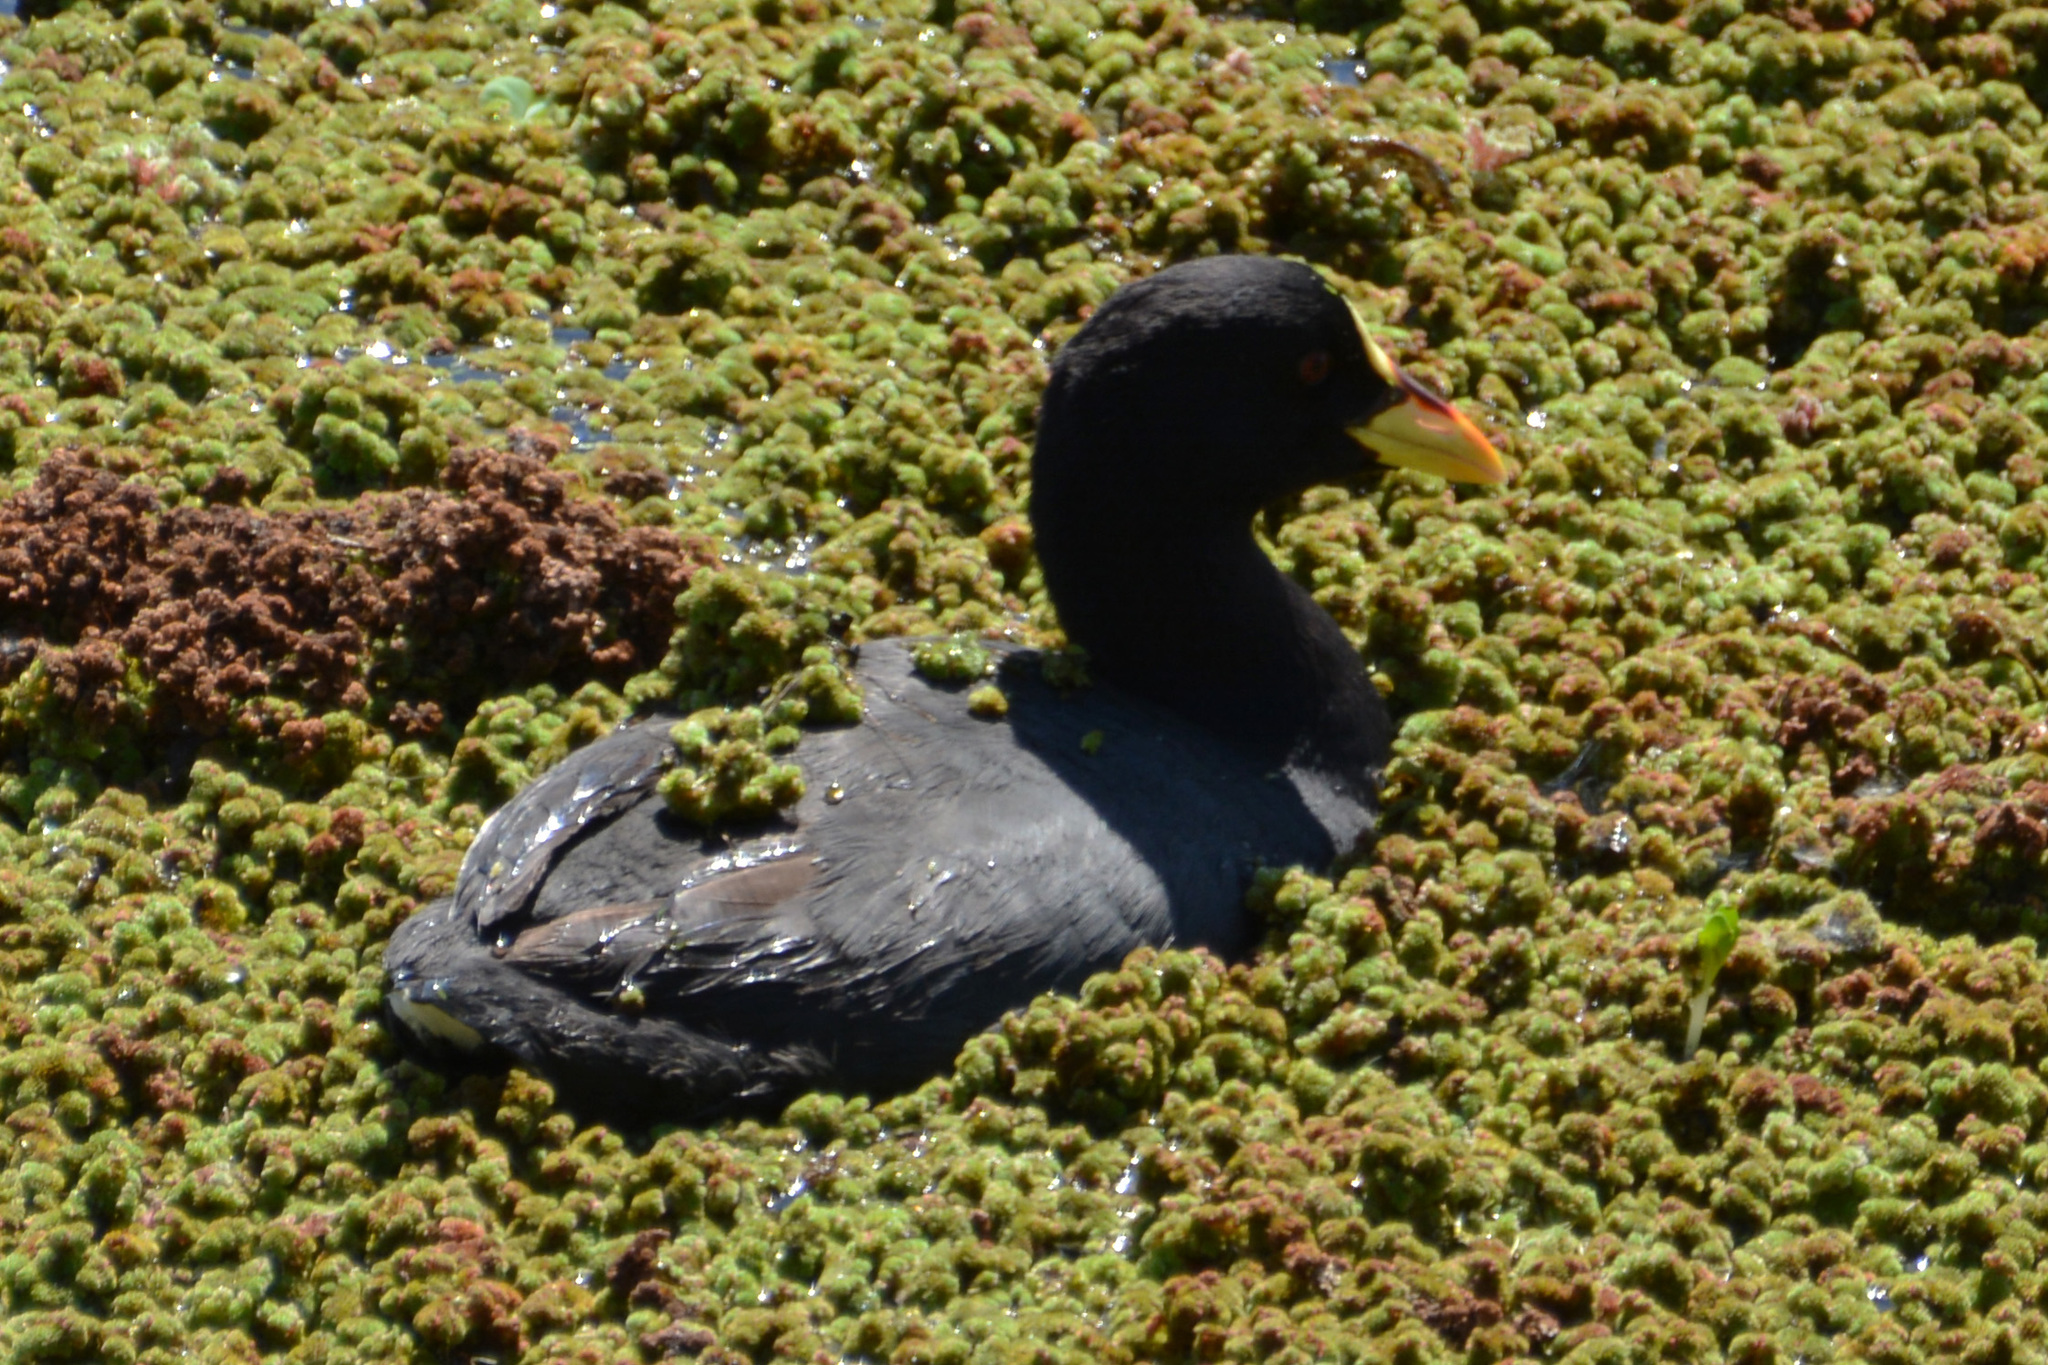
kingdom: Animalia
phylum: Chordata
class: Aves
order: Gruiformes
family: Rallidae
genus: Fulica
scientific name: Fulica armillata
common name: Red-gartered coot
